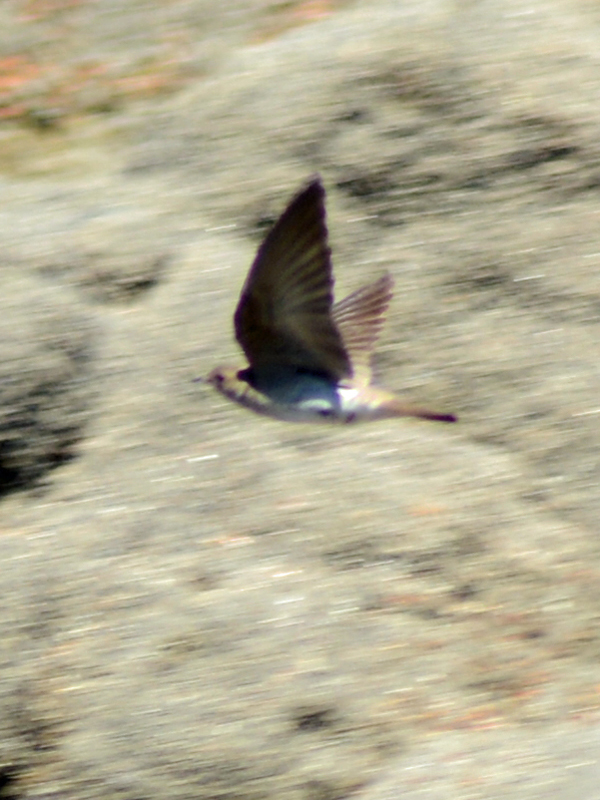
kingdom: Animalia
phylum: Chordata
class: Aves
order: Passeriformes
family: Hirundinidae
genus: Stelgidopteryx
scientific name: Stelgidopteryx serripennis
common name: Northern rough-winged swallow
